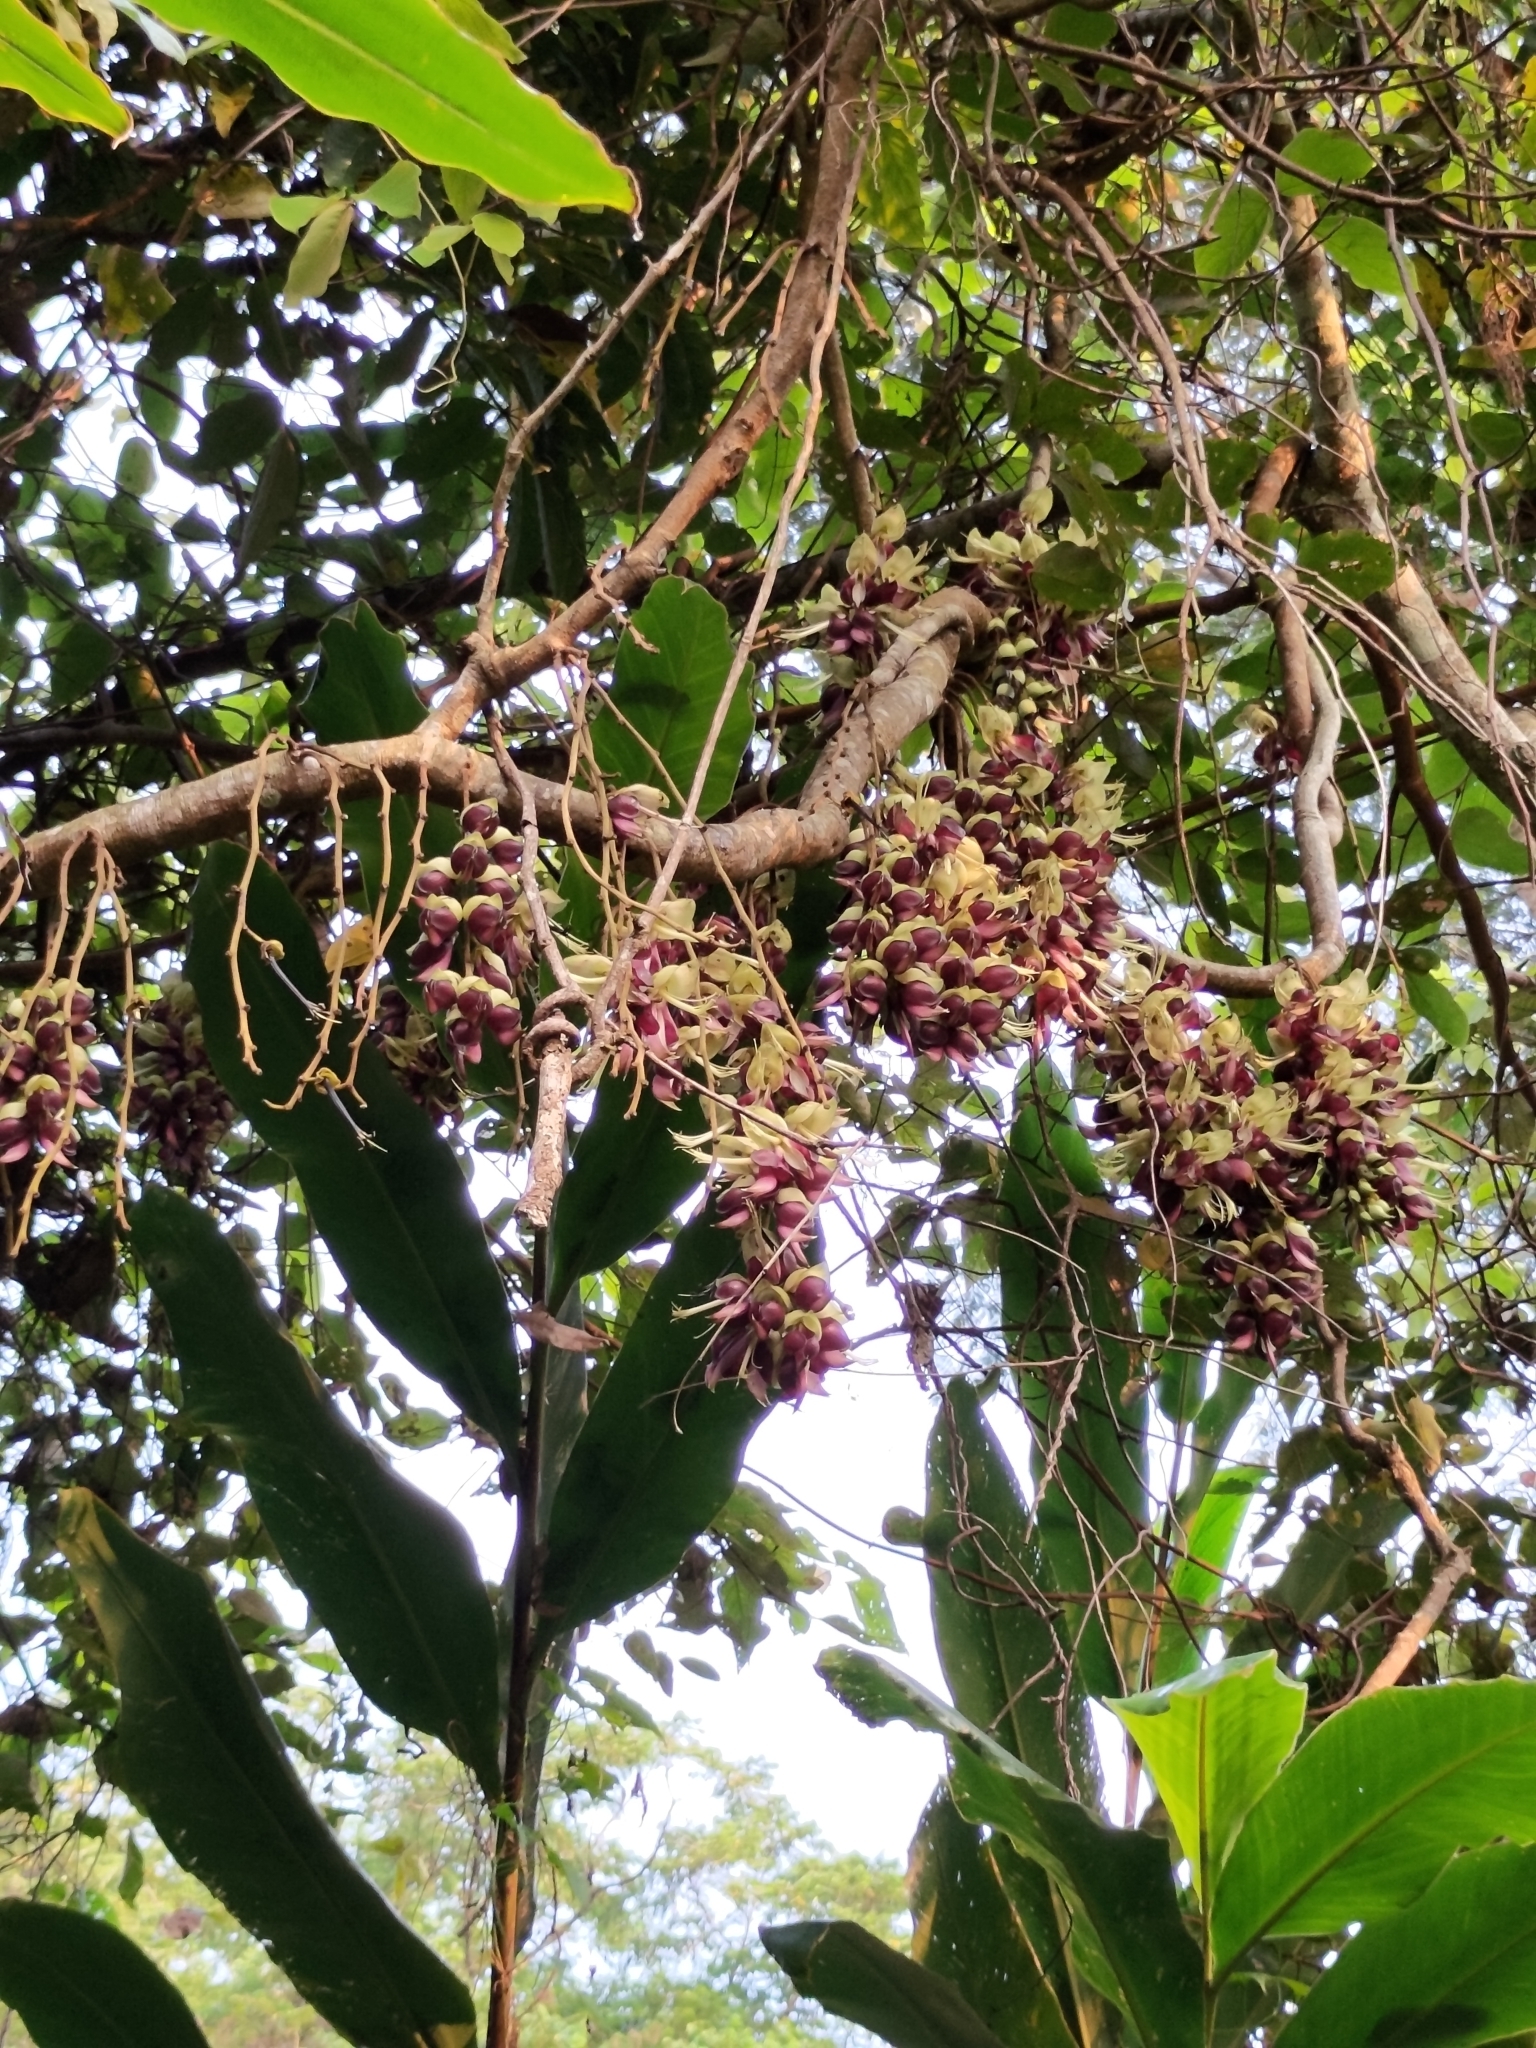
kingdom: Plantae
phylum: Tracheophyta
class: Magnoliopsida
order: Fabales
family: Fabaceae
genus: Mucuna
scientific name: Mucuna macrocarpa
